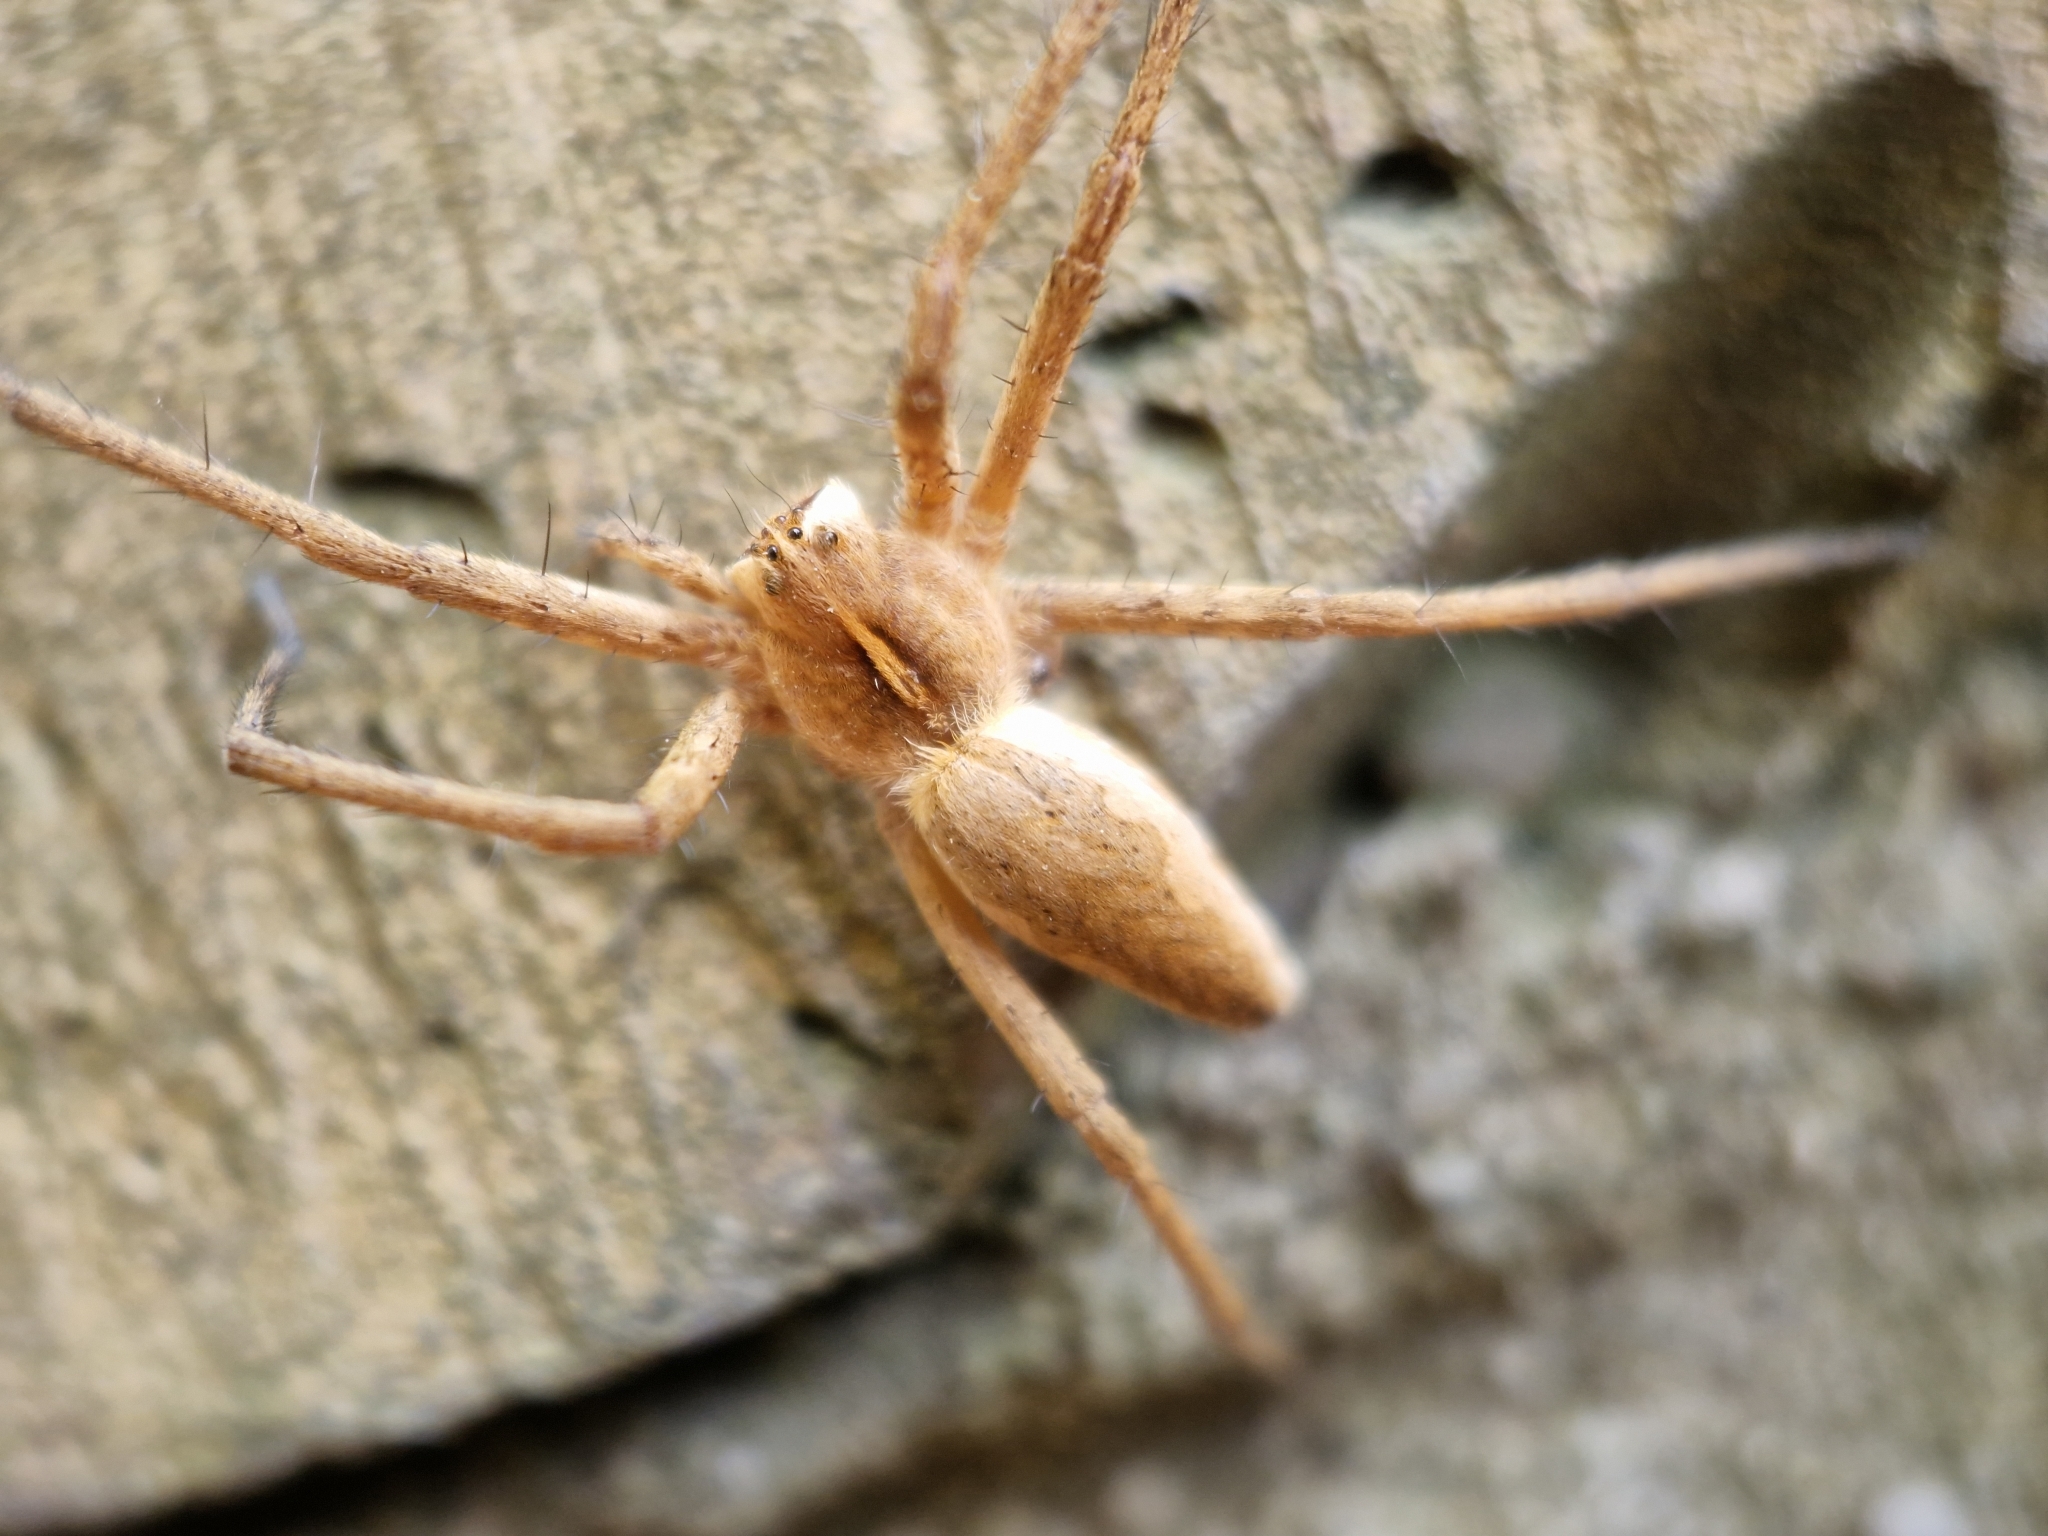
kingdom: Animalia
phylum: Arthropoda
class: Arachnida
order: Araneae
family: Pisauridae
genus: Pisaura
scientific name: Pisaura mirabilis
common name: Tent spider
